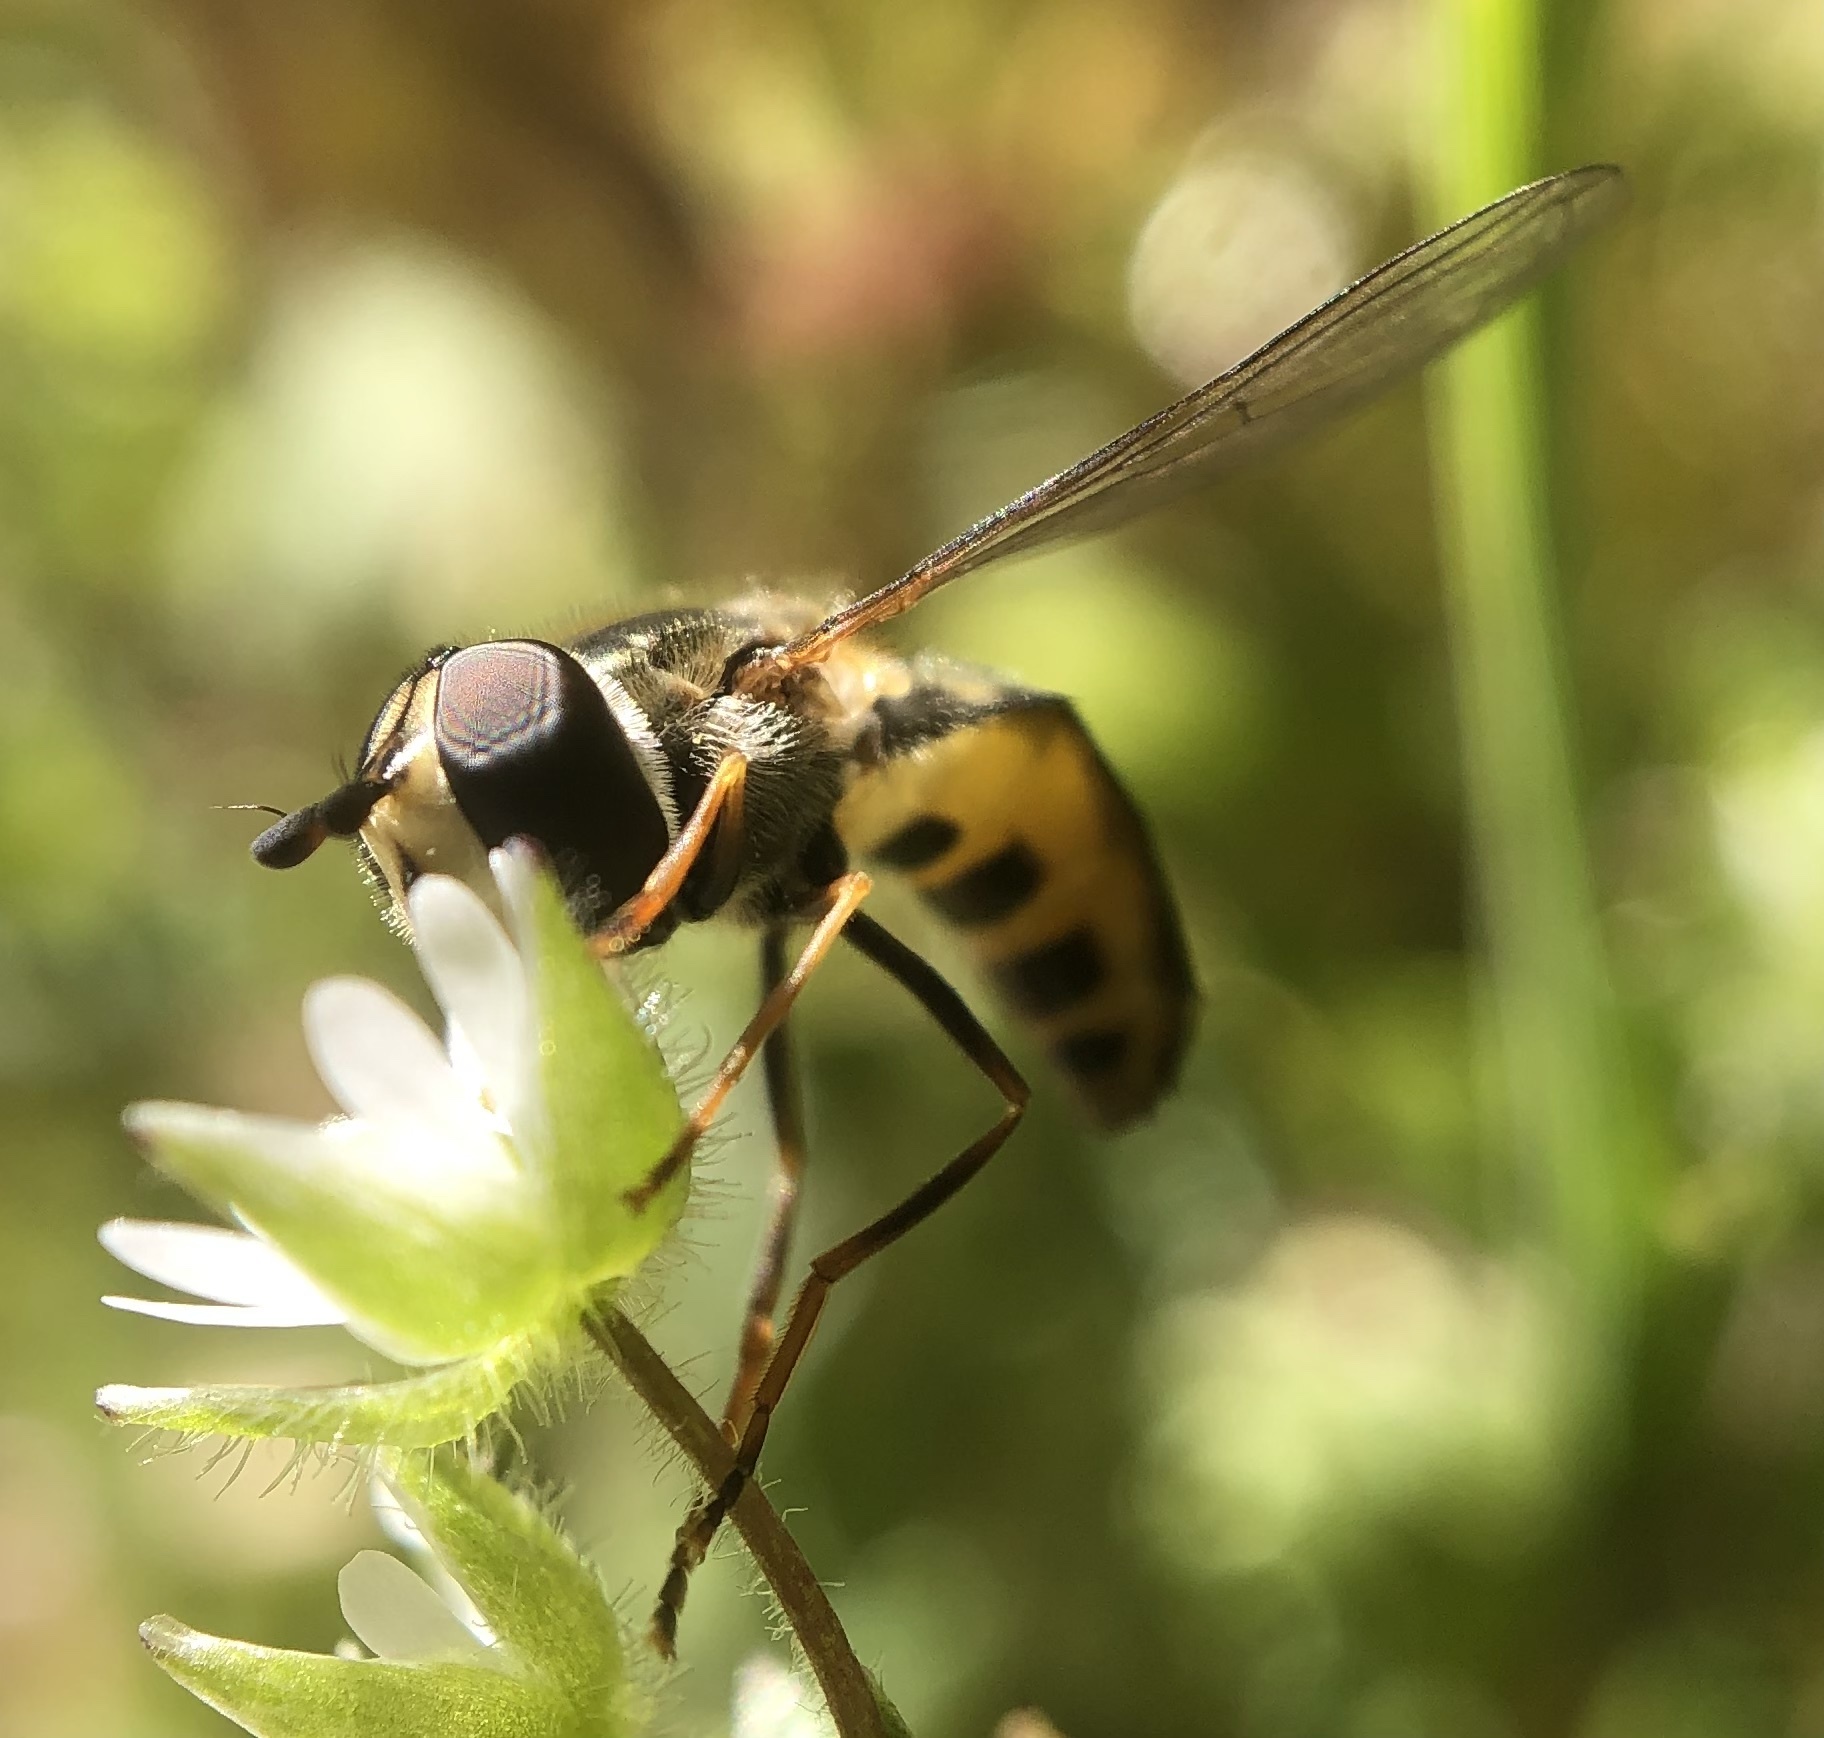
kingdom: Animalia
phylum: Arthropoda
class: Insecta
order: Diptera
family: Syrphidae
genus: Eupeodes
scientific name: Eupeodes
